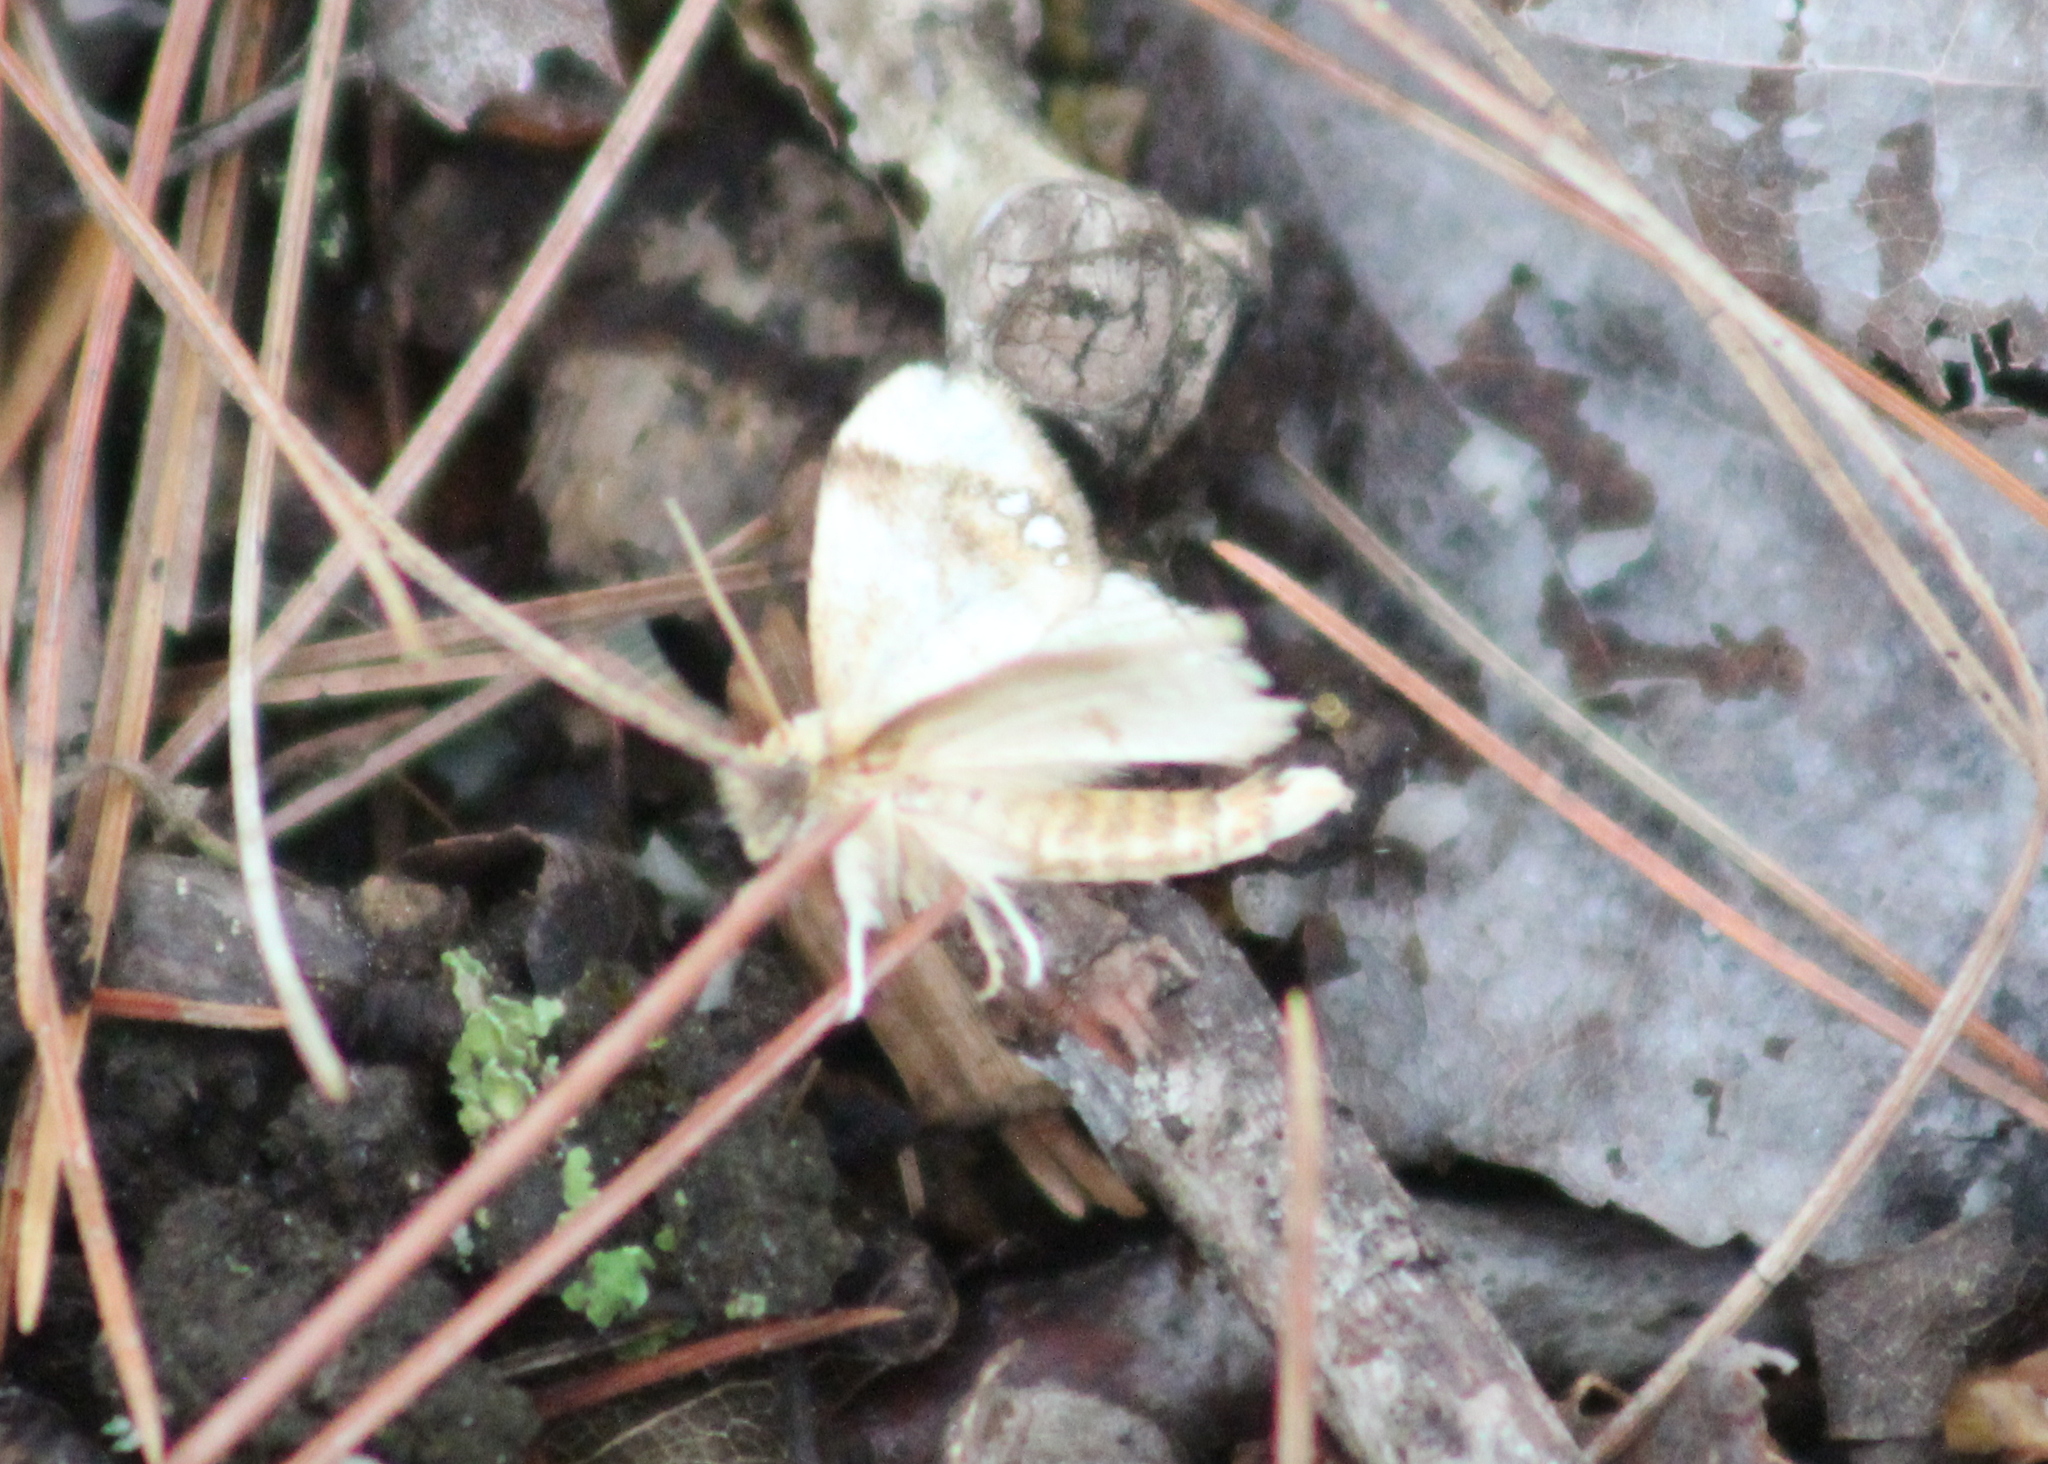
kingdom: Animalia
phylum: Arthropoda
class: Insecta
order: Lepidoptera
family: Limacodidae
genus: Packardia
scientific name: Packardia geminata
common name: Jeweled tailed slug moth
